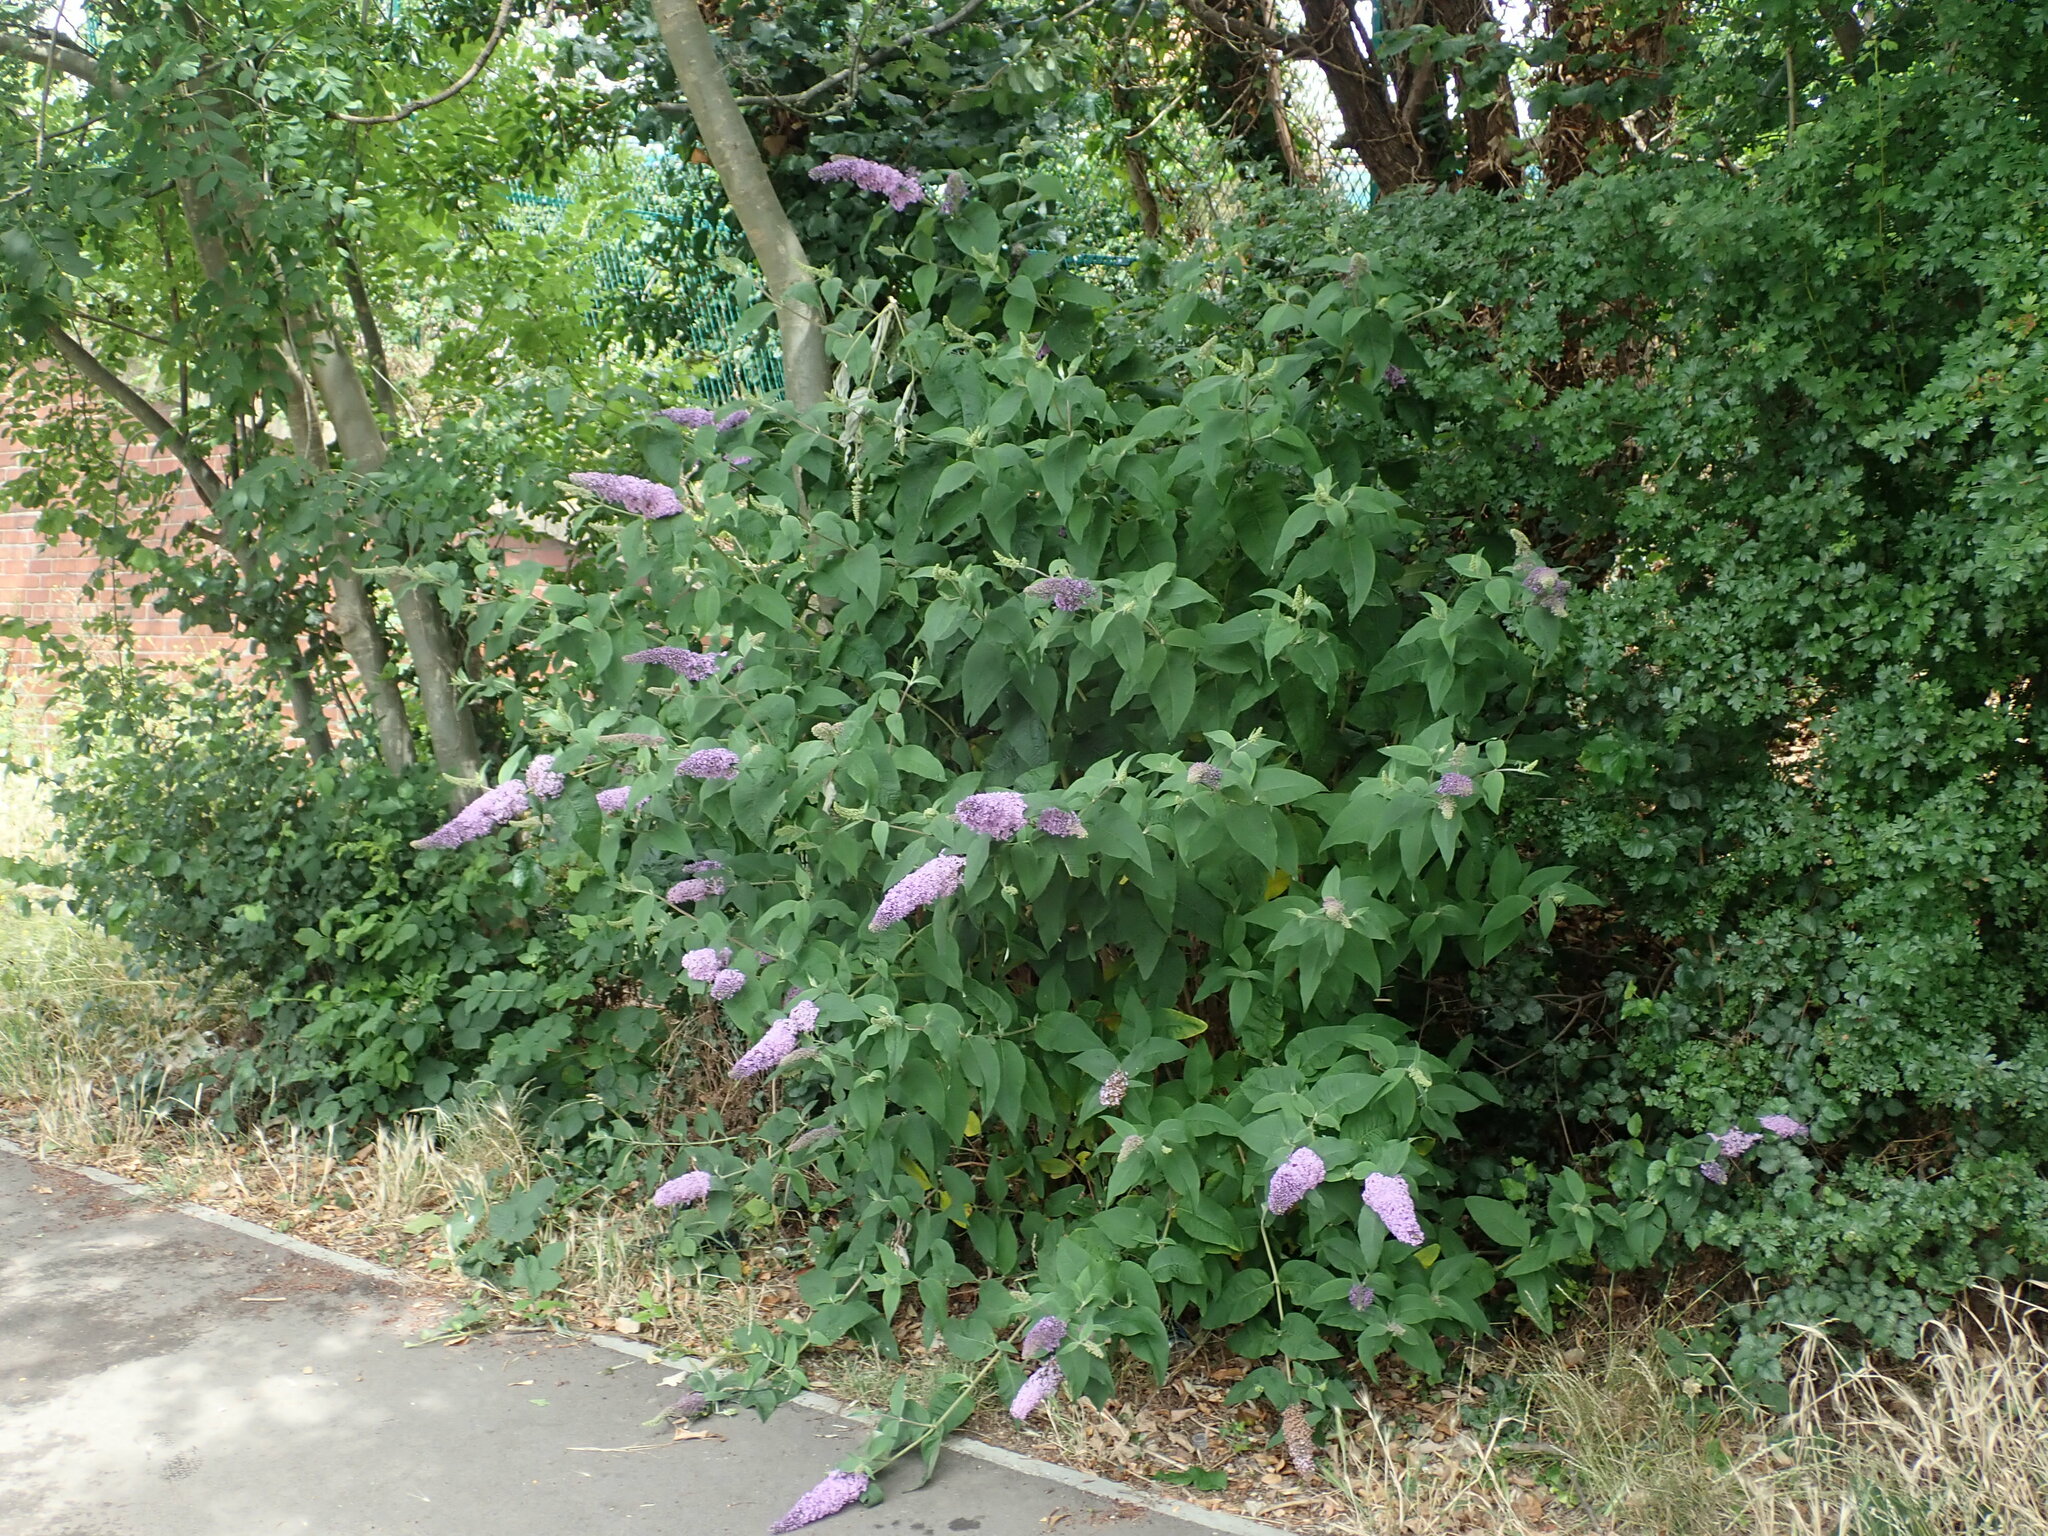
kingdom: Plantae
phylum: Tracheophyta
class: Magnoliopsida
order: Lamiales
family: Scrophulariaceae
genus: Buddleja
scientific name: Buddleja davidii
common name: Butterfly-bush
